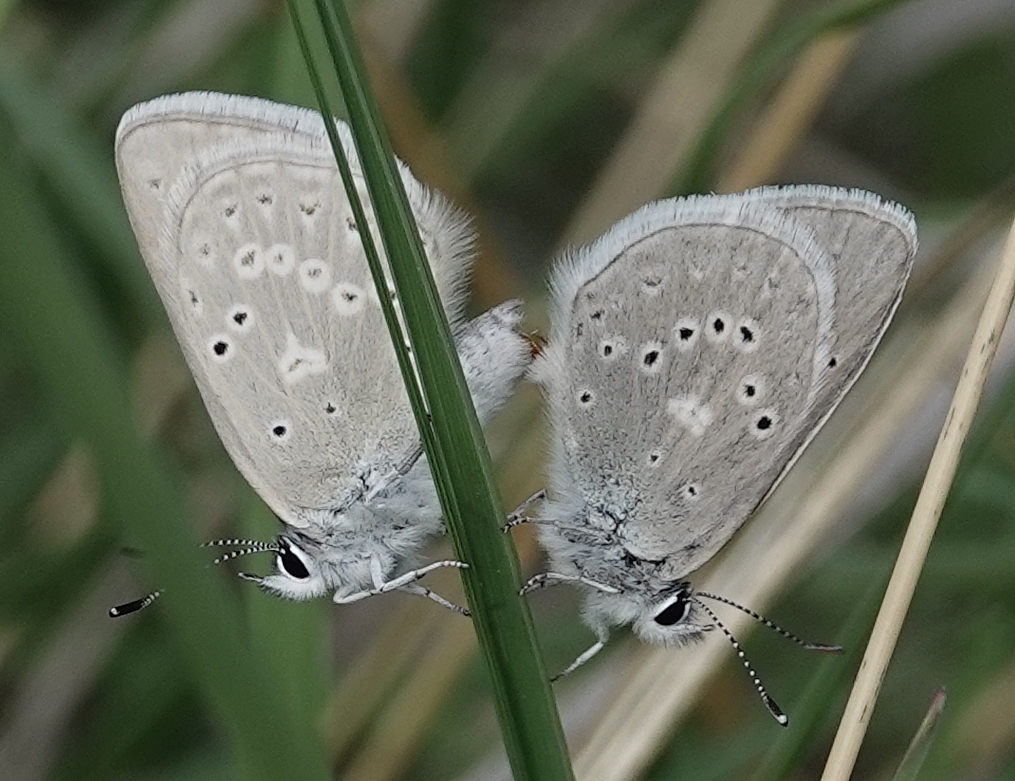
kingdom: Animalia
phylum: Arthropoda
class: Insecta
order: Lepidoptera
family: Lycaenidae
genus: Icaricia
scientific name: Icaricia icarioides
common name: Boisduval's blue
